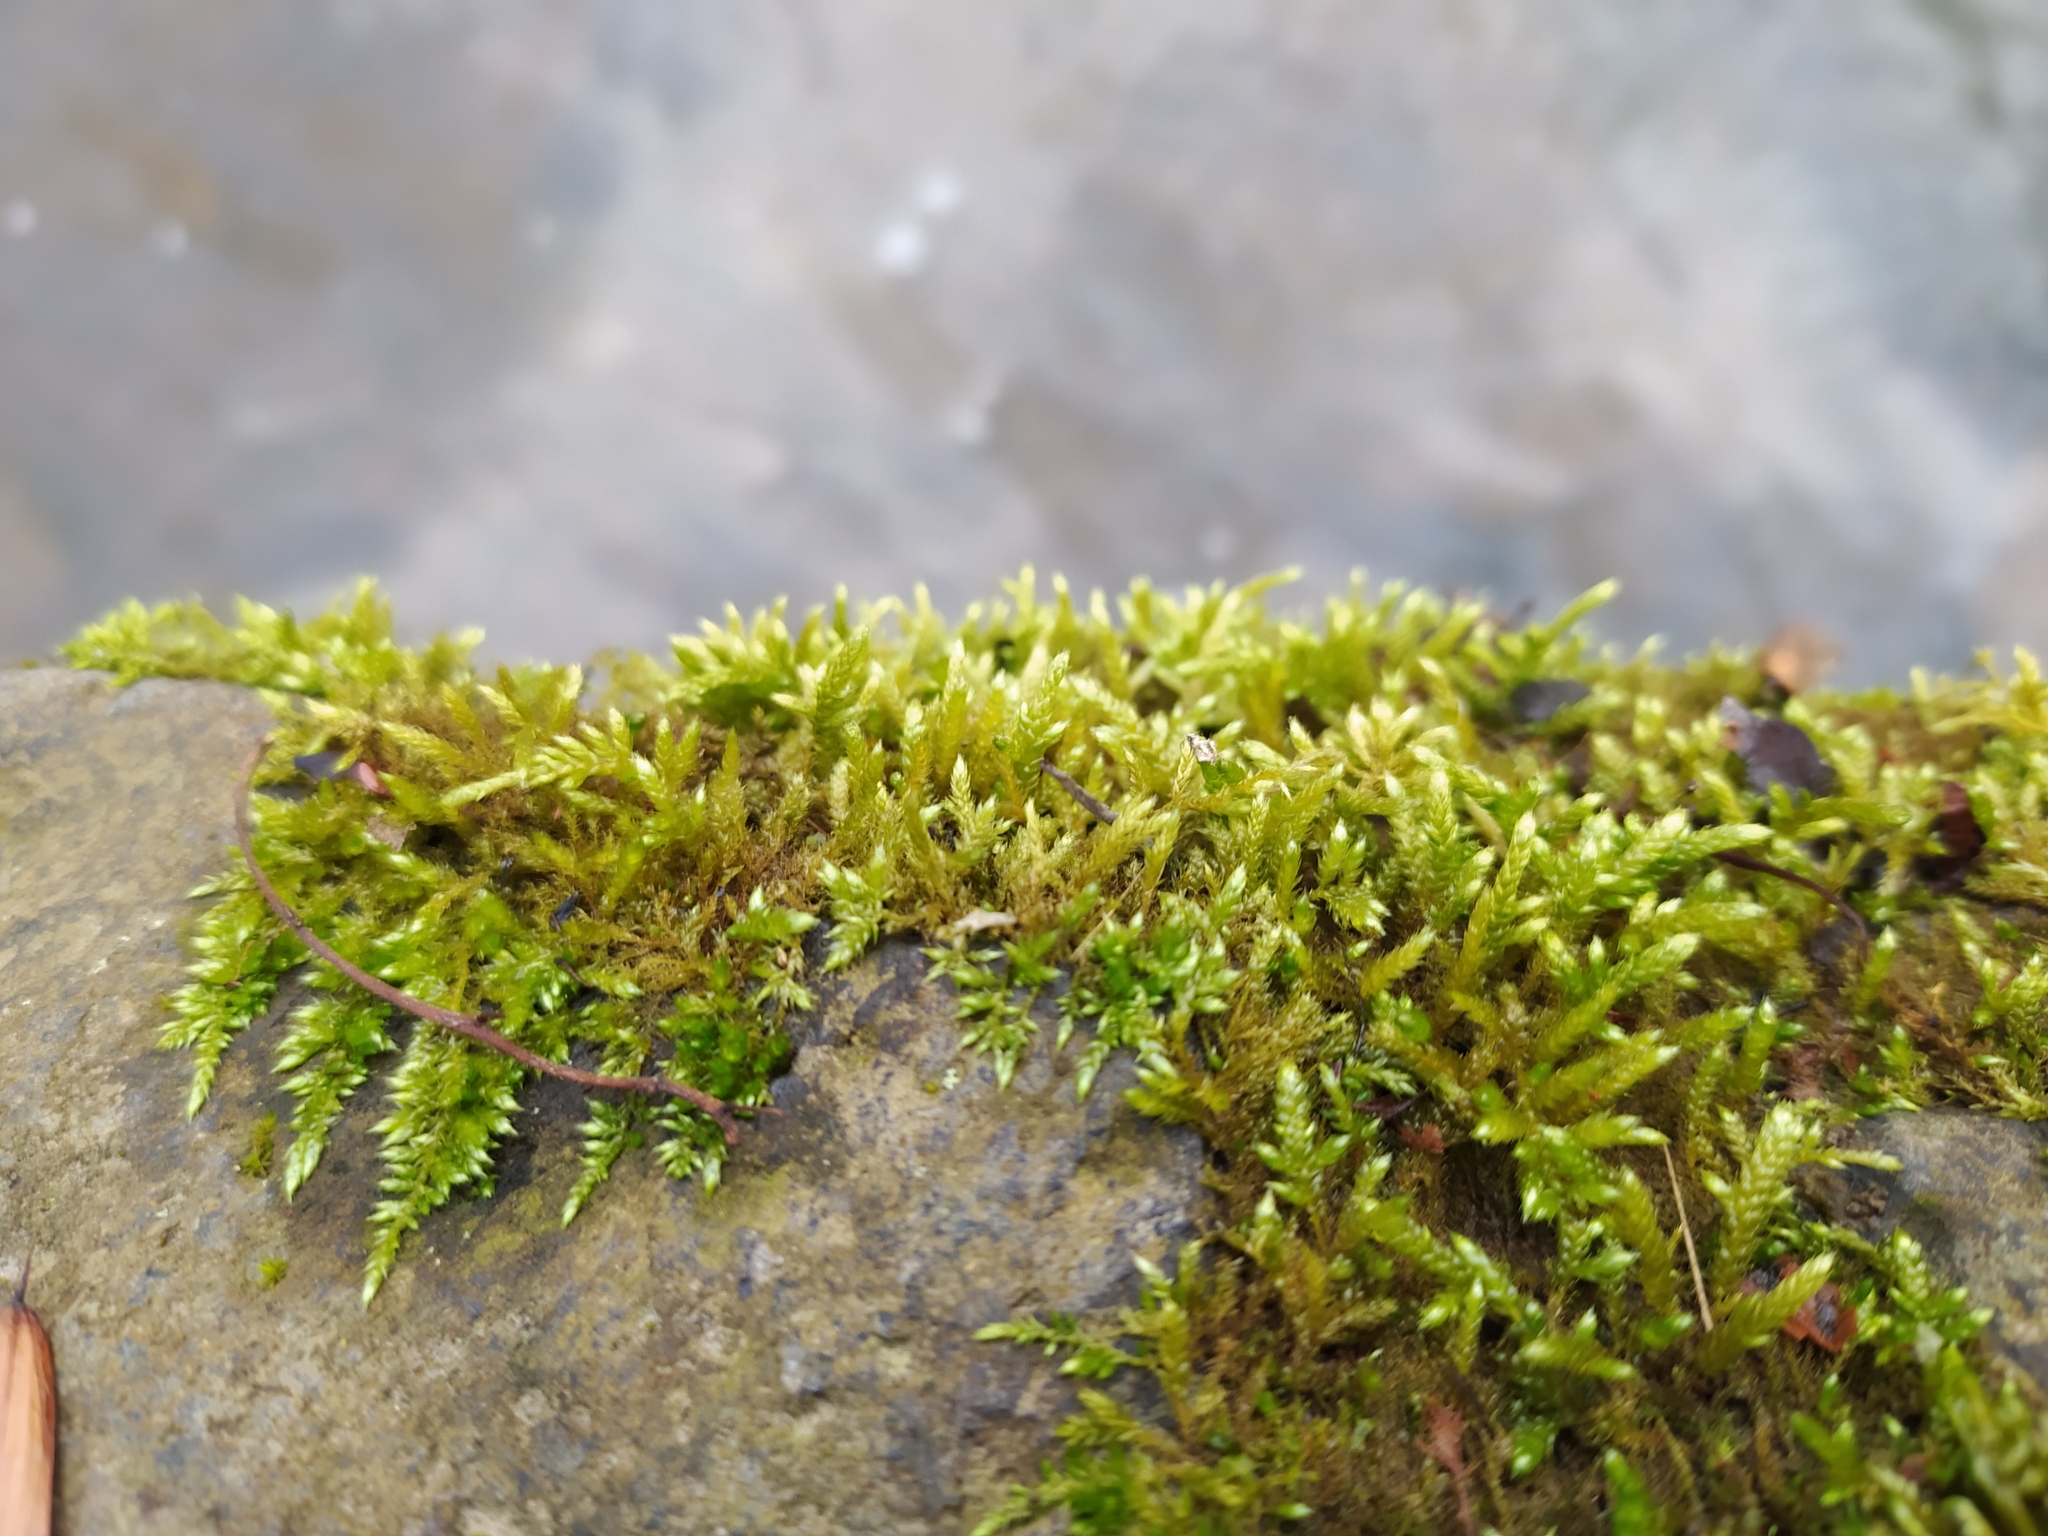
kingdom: Plantae
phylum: Bryophyta
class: Bryopsida
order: Hypnales
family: Brachytheciaceae
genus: Brachythecium
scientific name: Brachythecium rivulare
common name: River ragged moss
